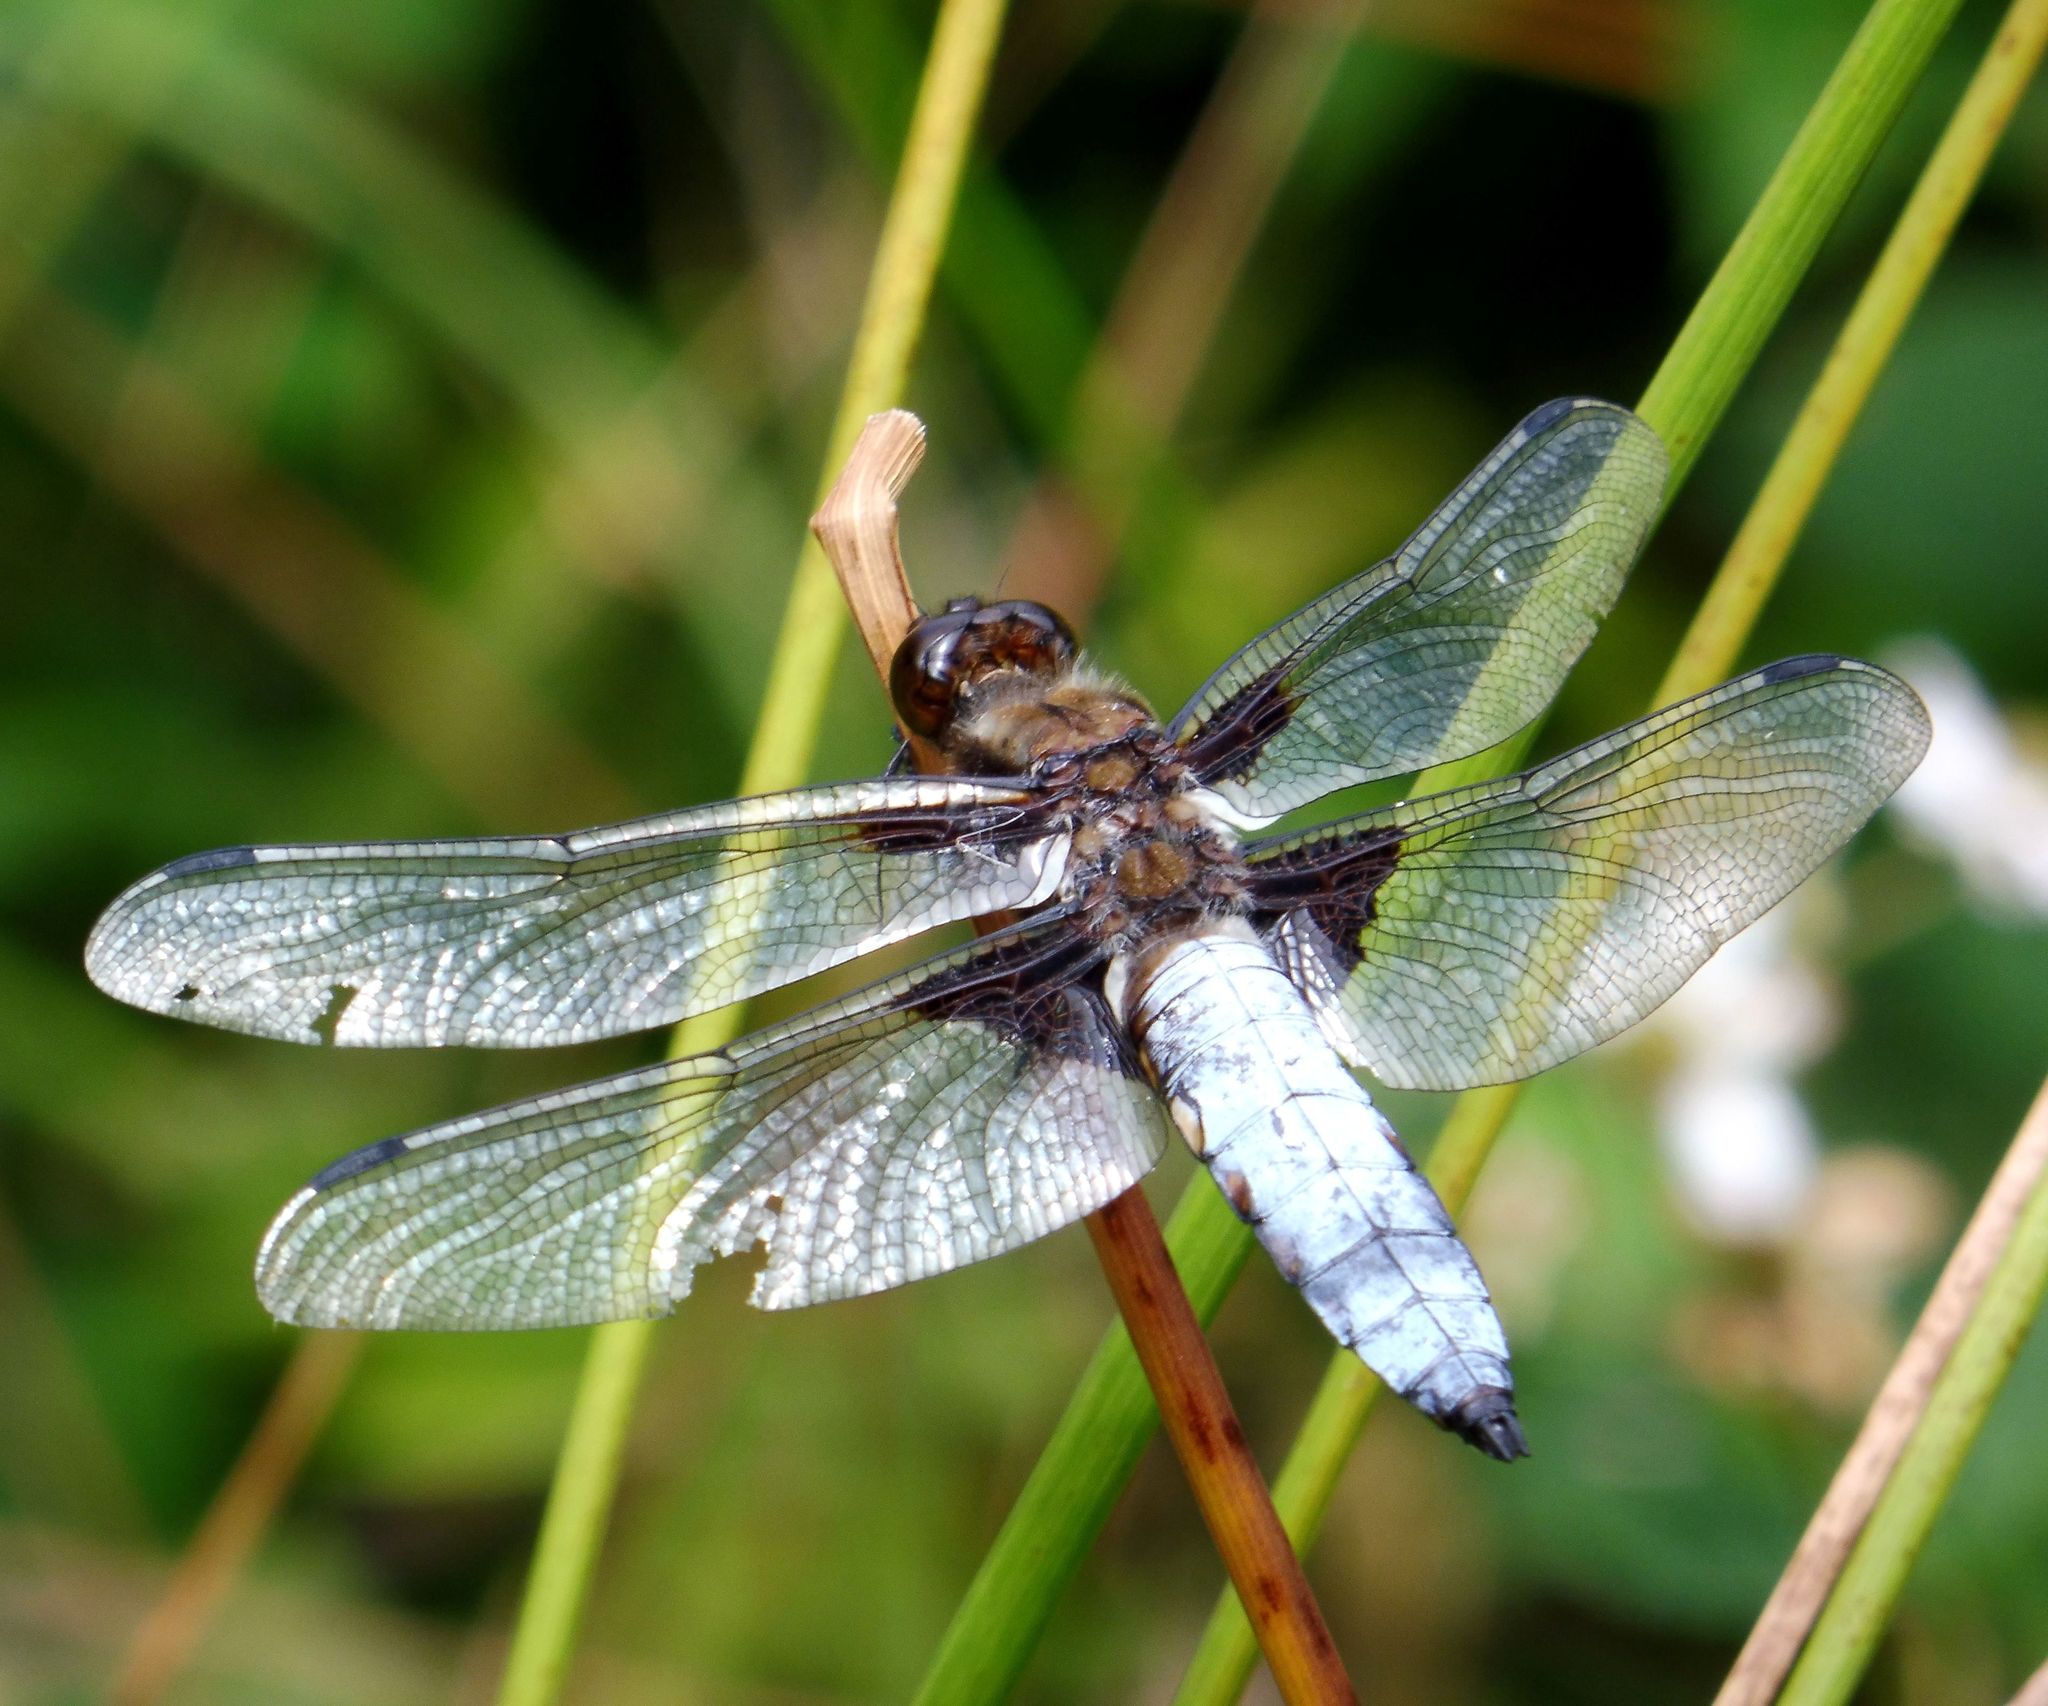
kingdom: Animalia
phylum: Arthropoda
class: Insecta
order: Odonata
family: Libellulidae
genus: Libellula
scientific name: Libellula depressa
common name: Broad-bodied chaser
